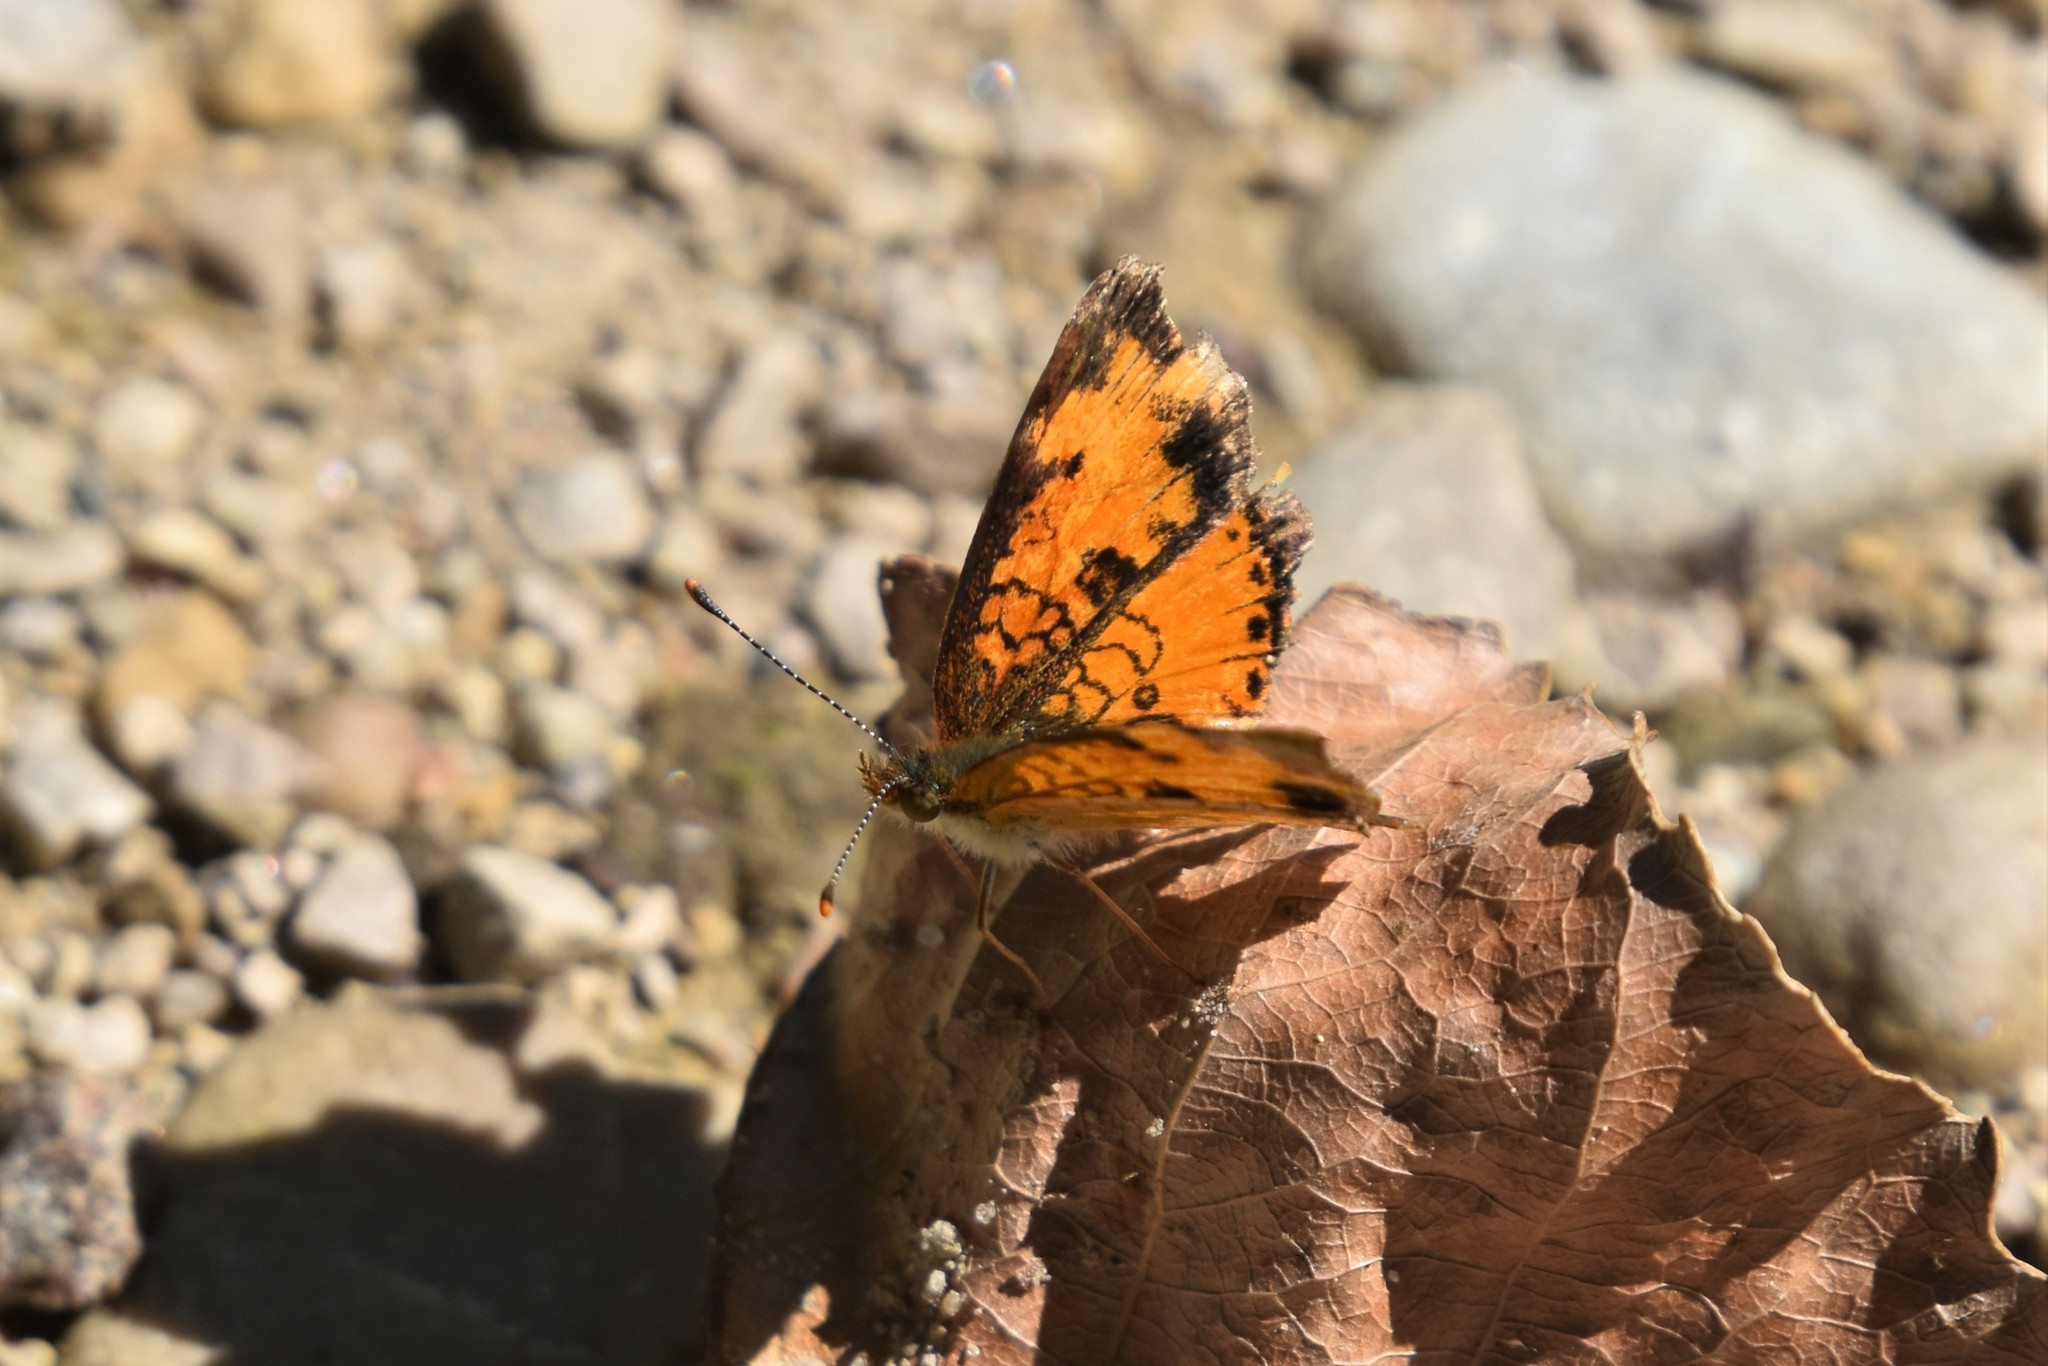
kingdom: Animalia
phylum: Arthropoda
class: Insecta
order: Lepidoptera
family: Nymphalidae
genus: Phyciodes
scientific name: Phyciodes tharos
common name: Pearl crescent
